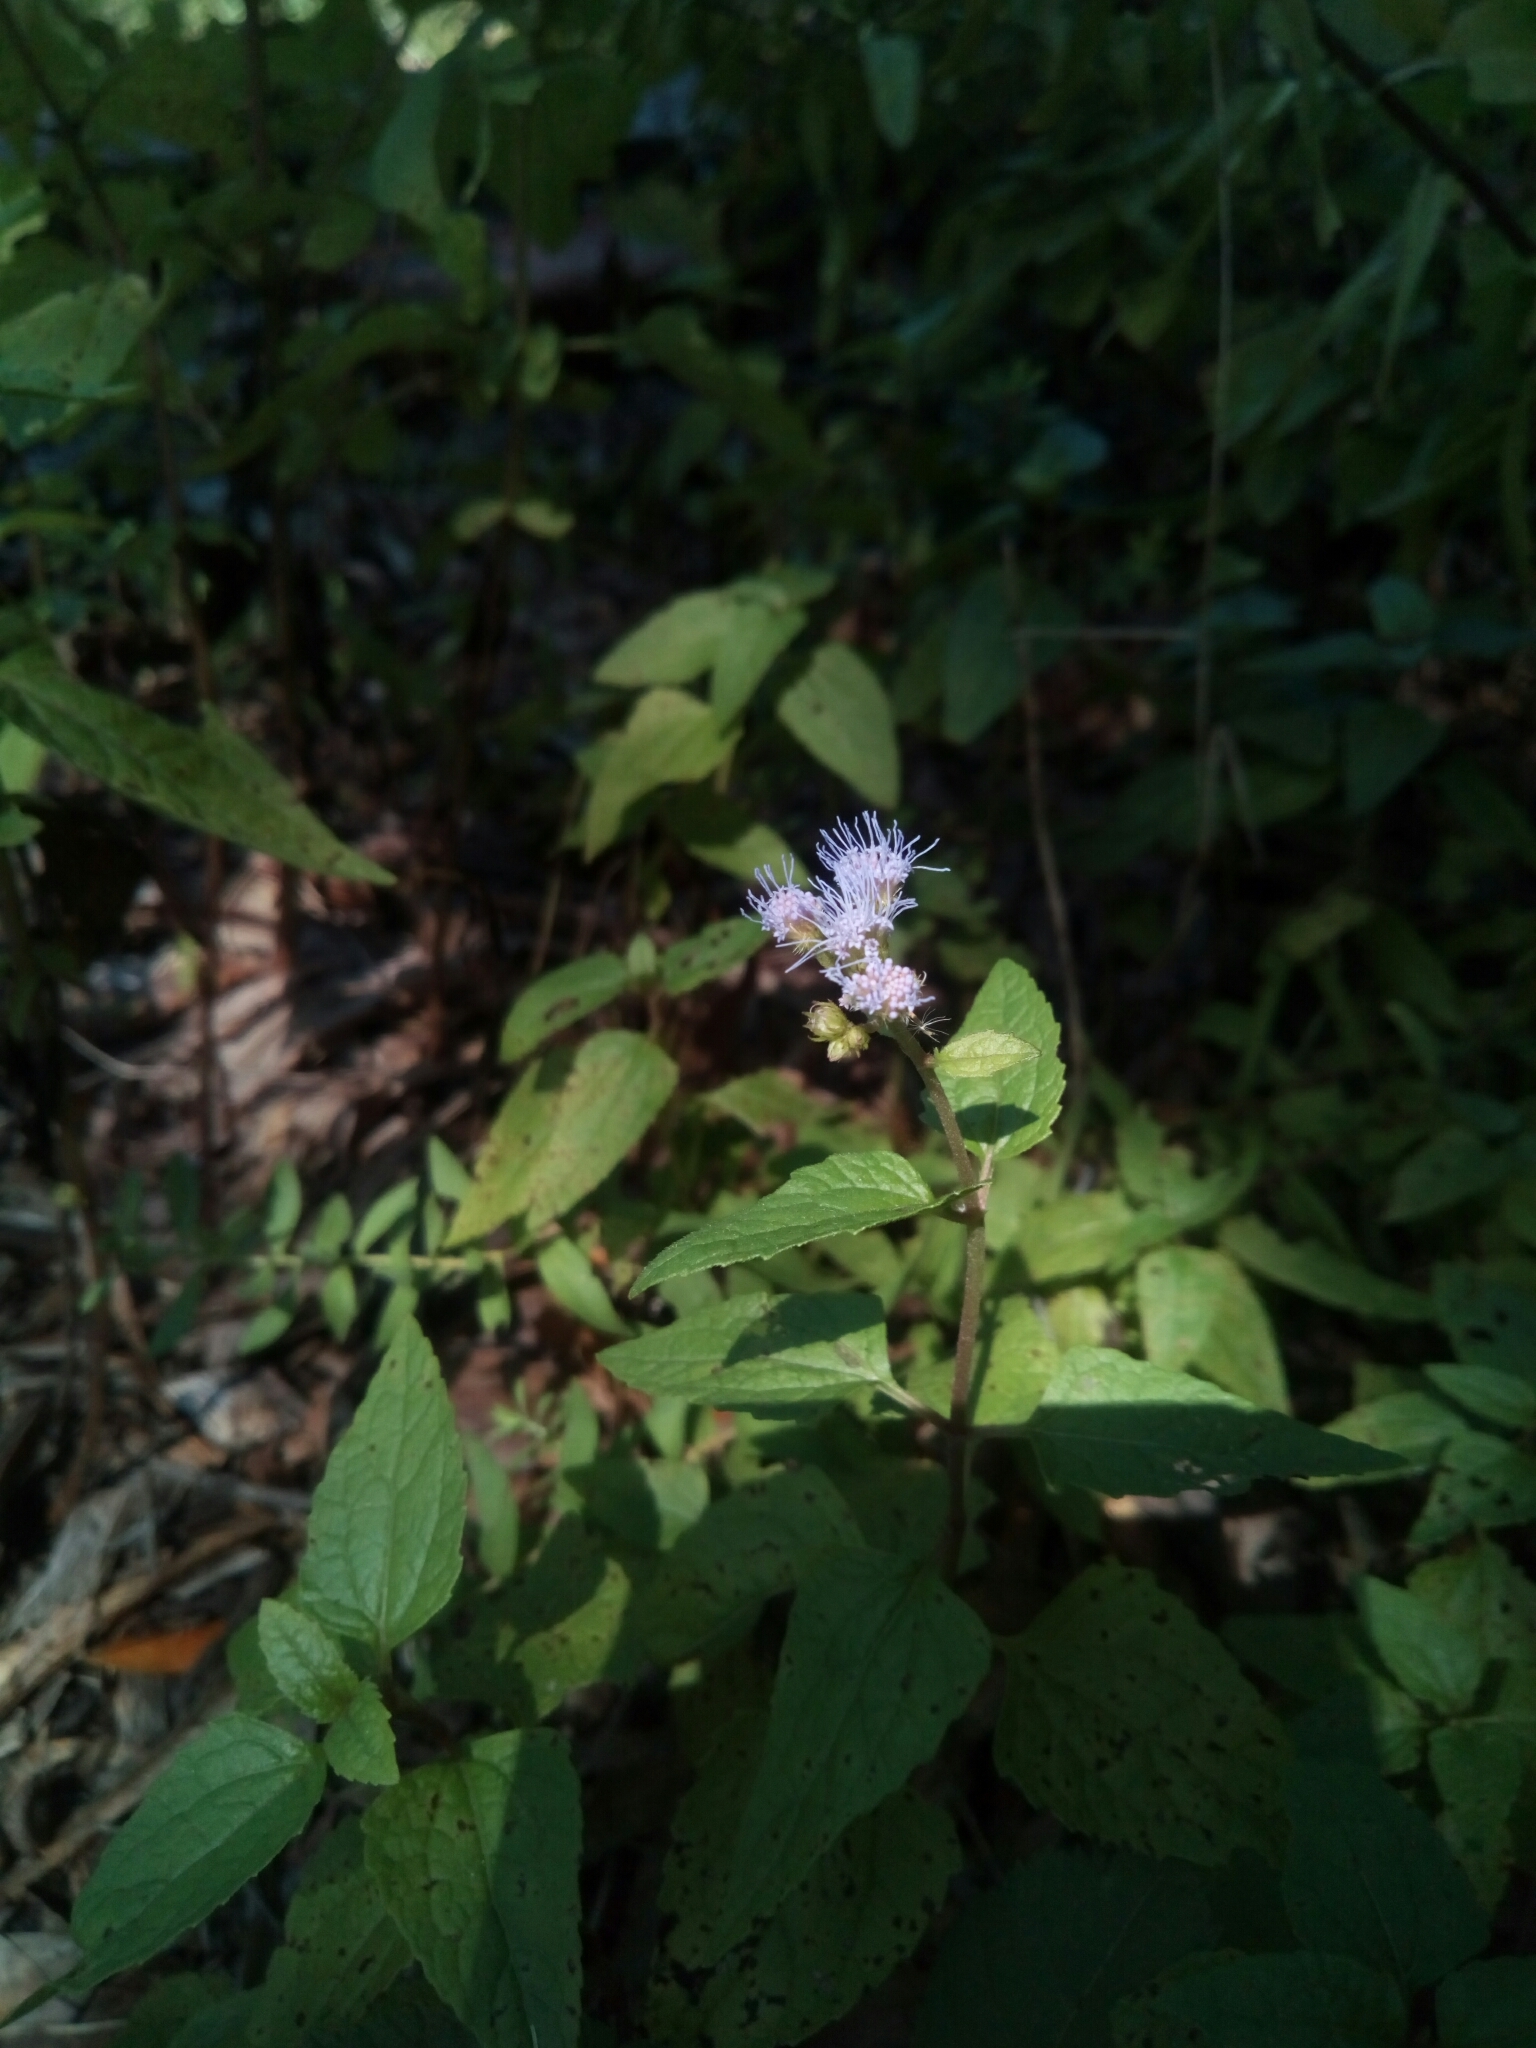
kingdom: Plantae
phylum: Tracheophyta
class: Magnoliopsida
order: Asterales
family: Asteraceae
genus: Conoclinium
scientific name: Conoclinium coelestinum
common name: Blue mistflower
